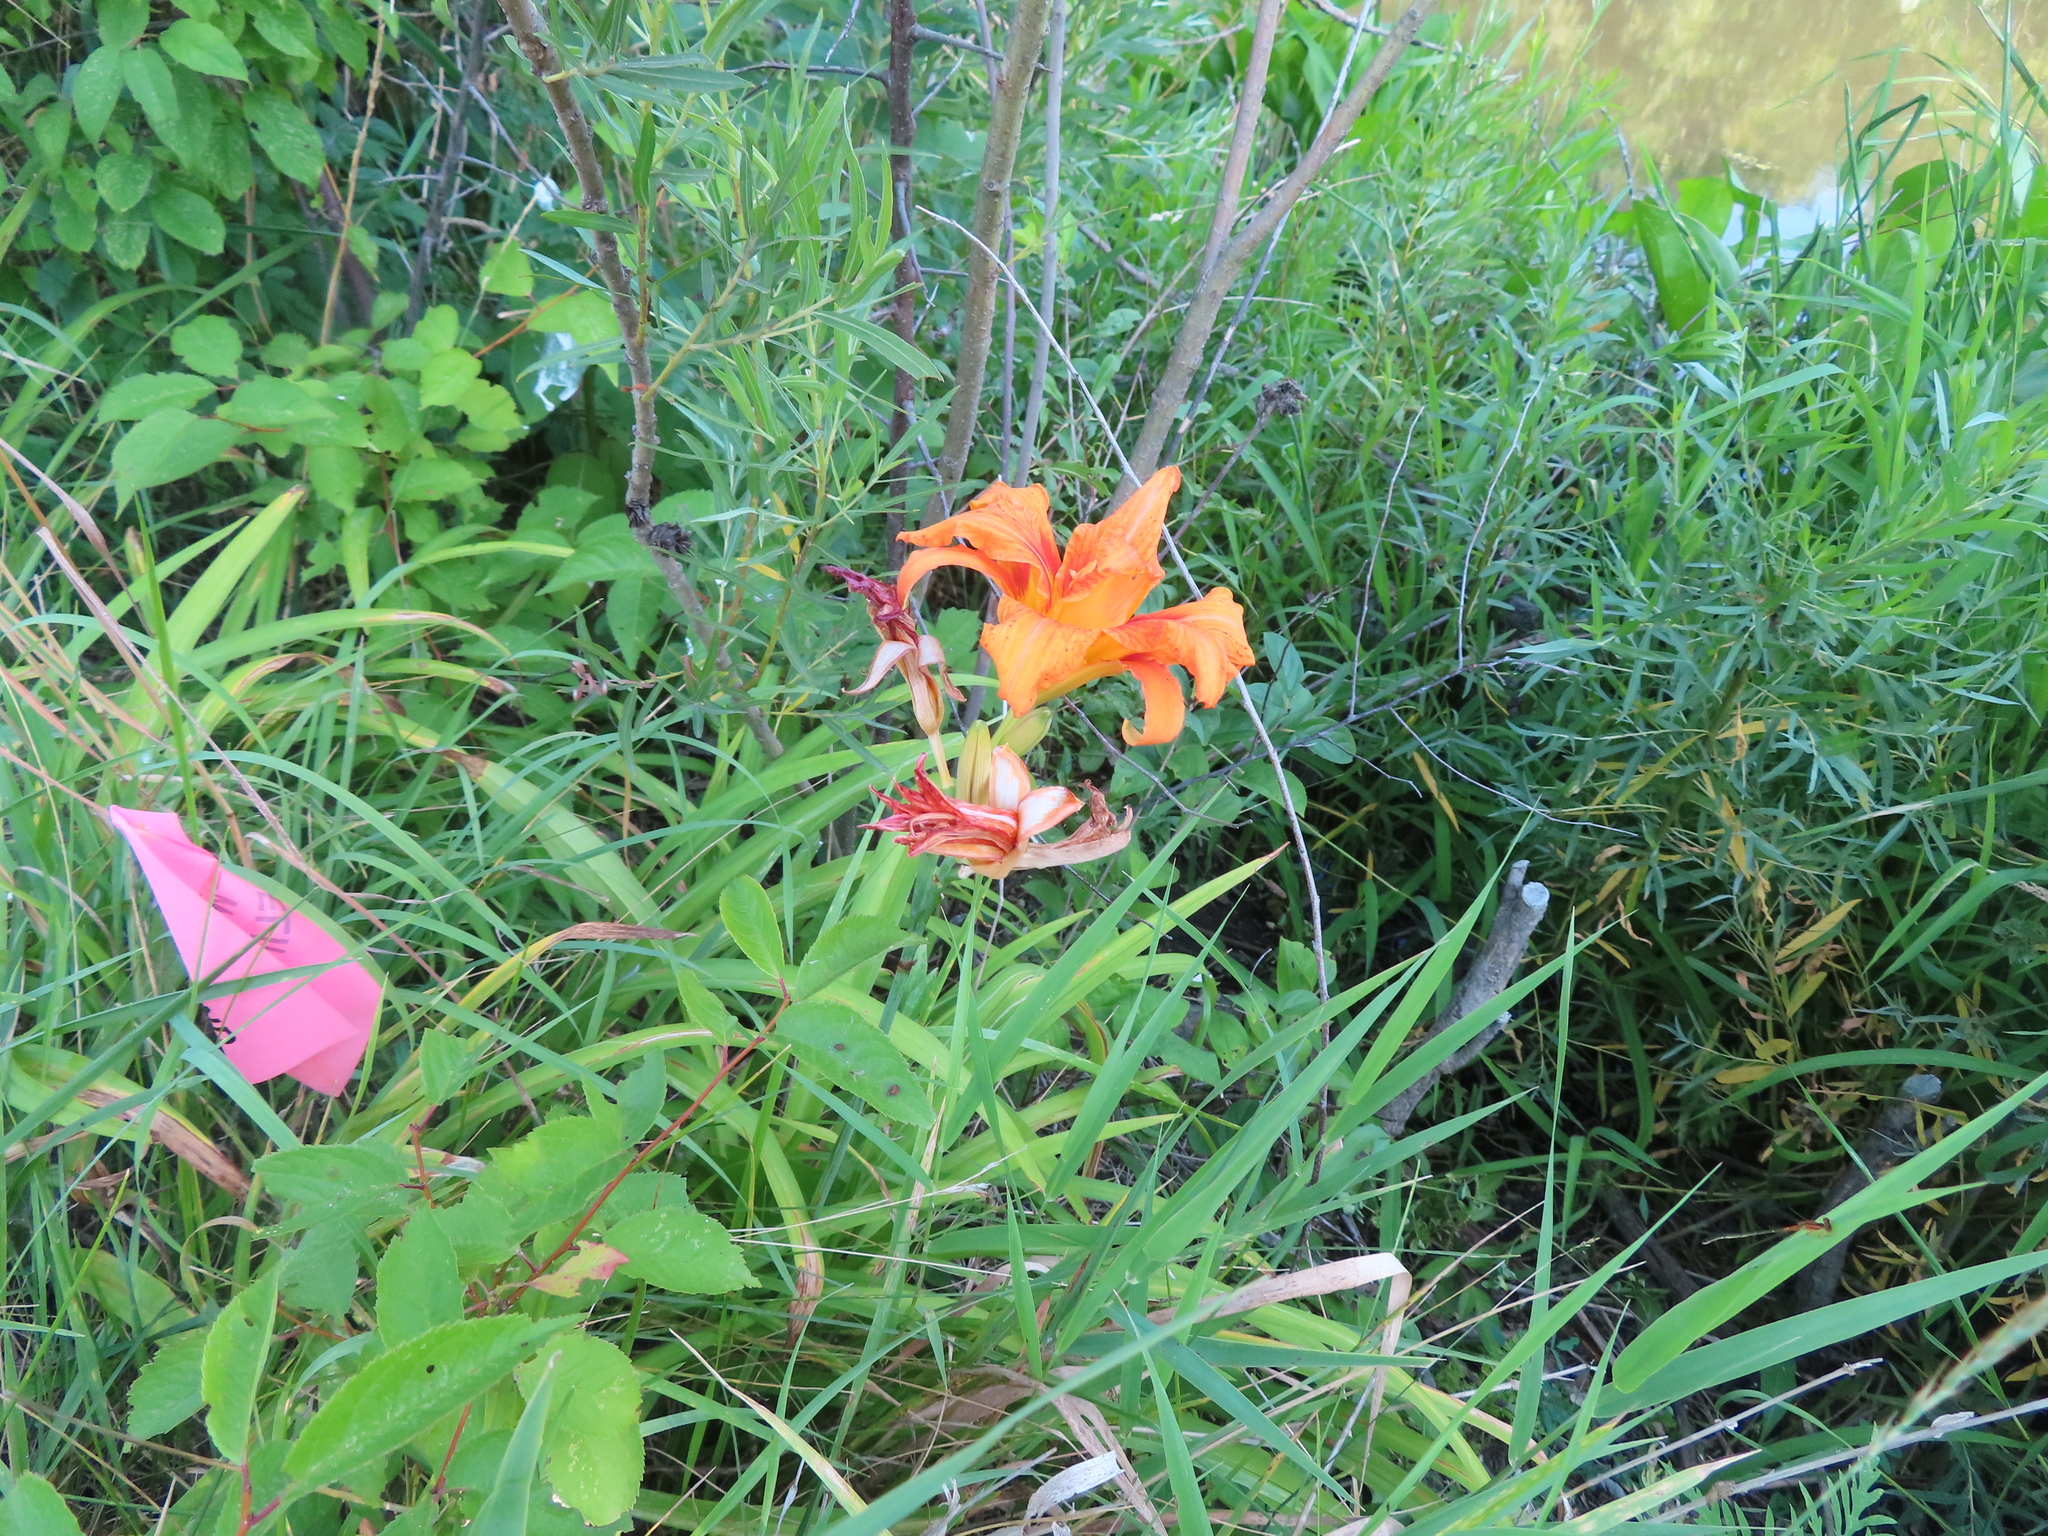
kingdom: Plantae
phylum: Tracheophyta
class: Liliopsida
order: Asparagales
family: Asphodelaceae
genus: Hemerocallis
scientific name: Hemerocallis fulva
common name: Orange day-lily
